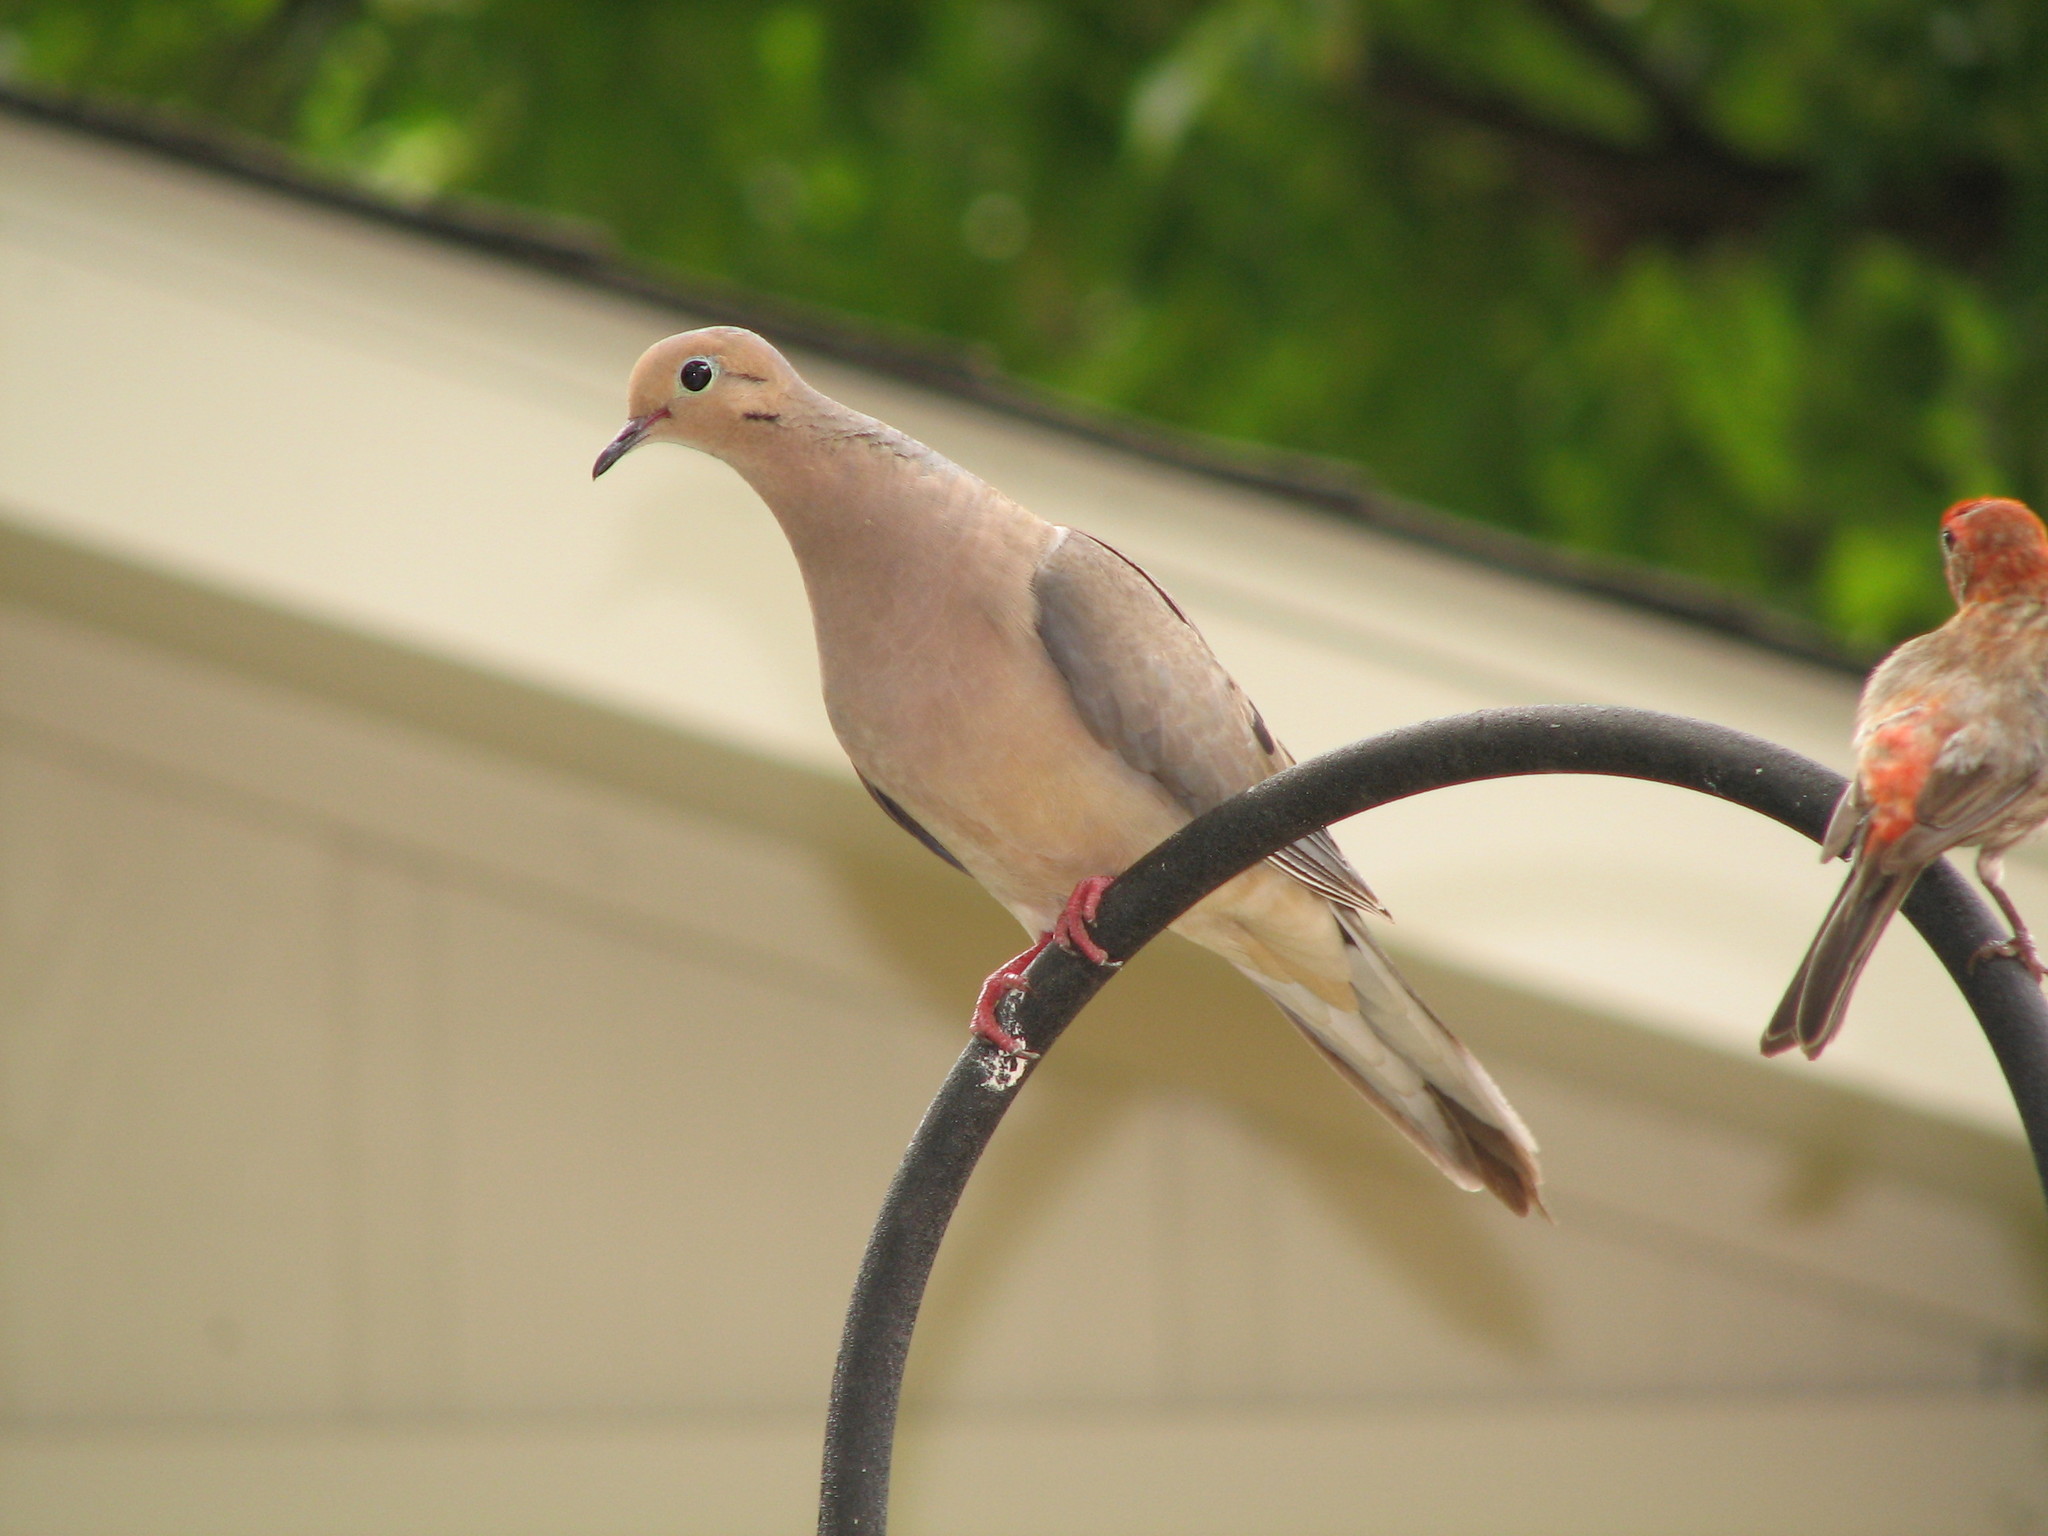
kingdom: Animalia
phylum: Chordata
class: Aves
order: Columbiformes
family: Columbidae
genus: Zenaida
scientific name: Zenaida macroura
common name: Mourning dove
